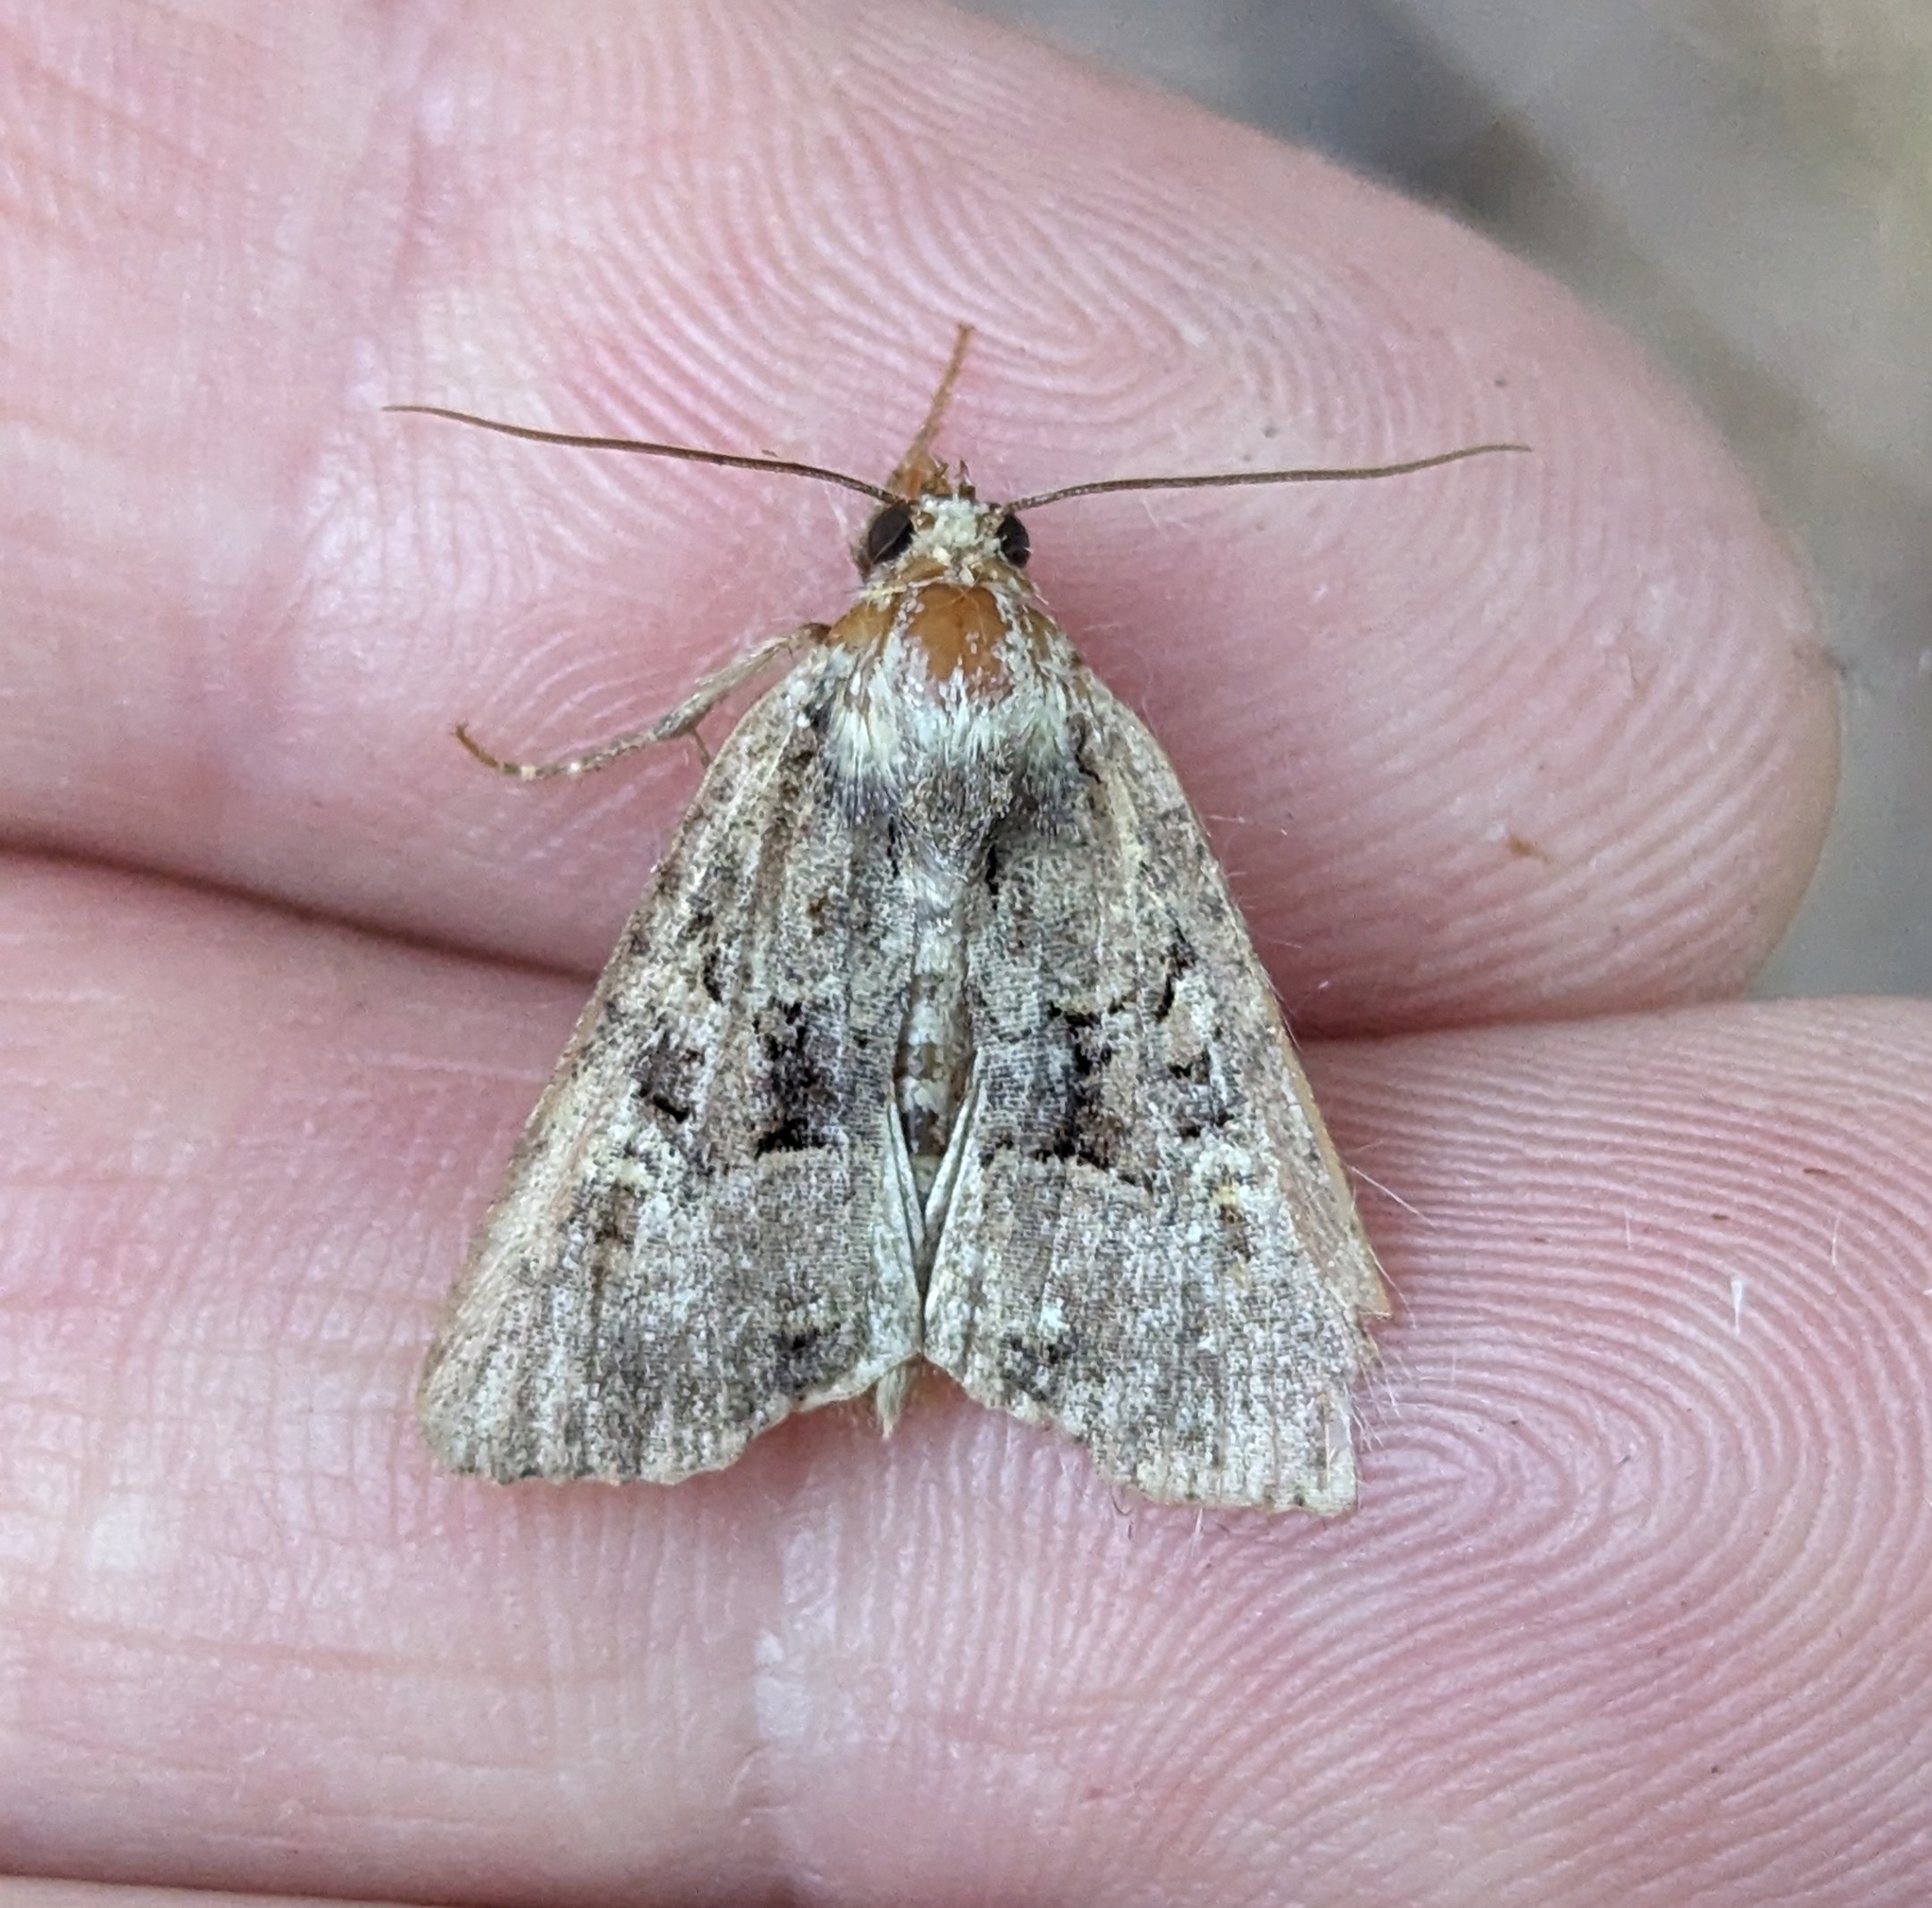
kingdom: Animalia
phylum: Arthropoda
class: Insecta
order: Lepidoptera
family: Noctuidae
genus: Mesapamea
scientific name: Mesapamea secalis
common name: Common rustic
